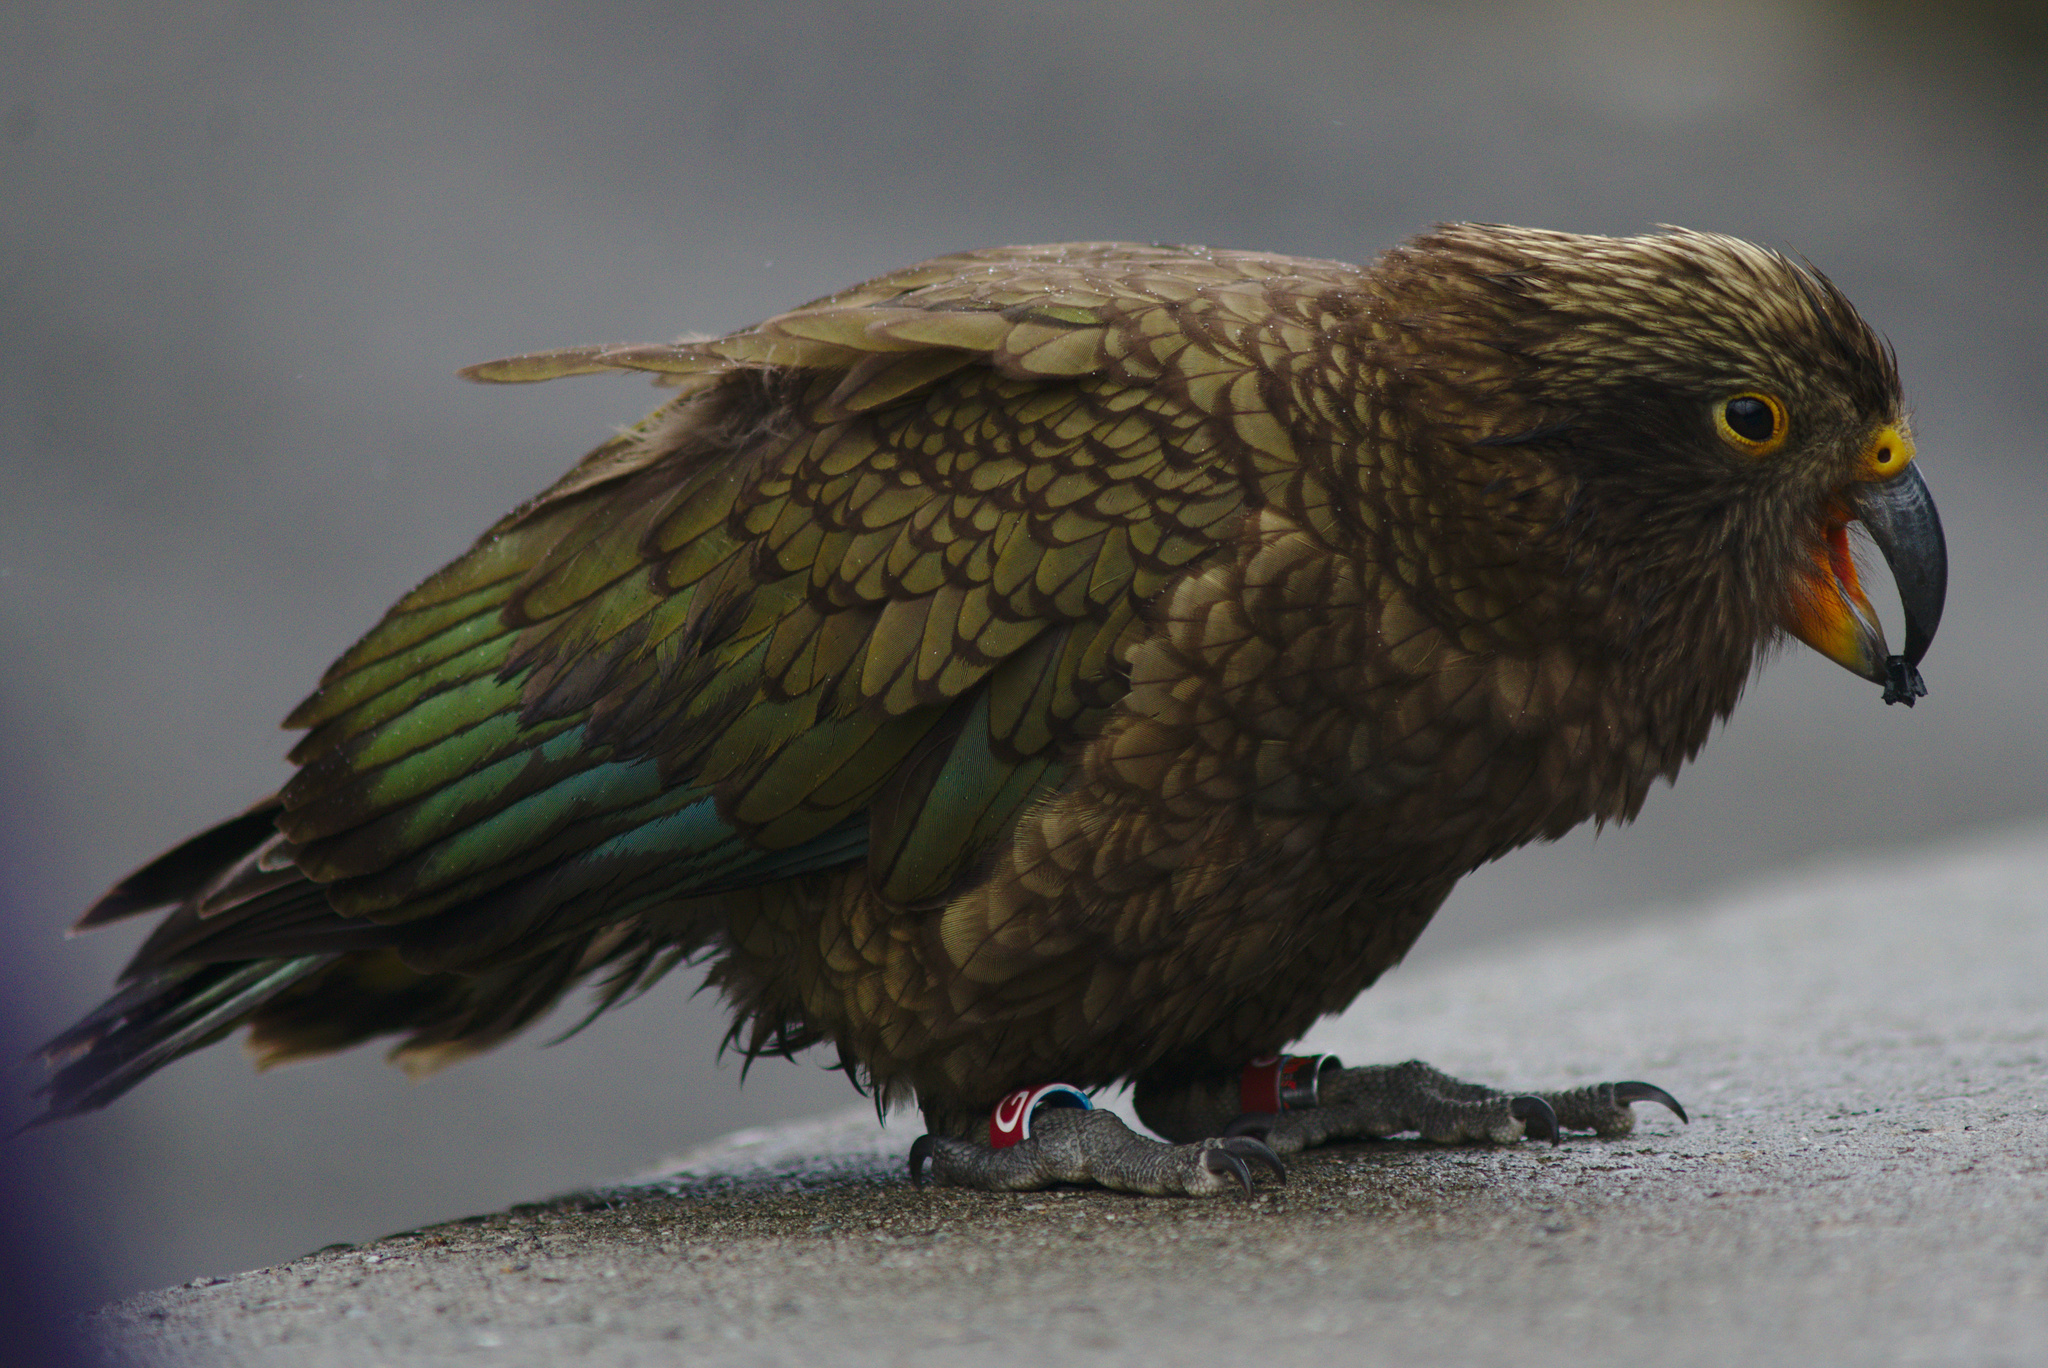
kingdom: Animalia
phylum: Chordata
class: Aves
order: Psittaciformes
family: Psittacidae
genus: Nestor
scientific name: Nestor notabilis
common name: Kea
